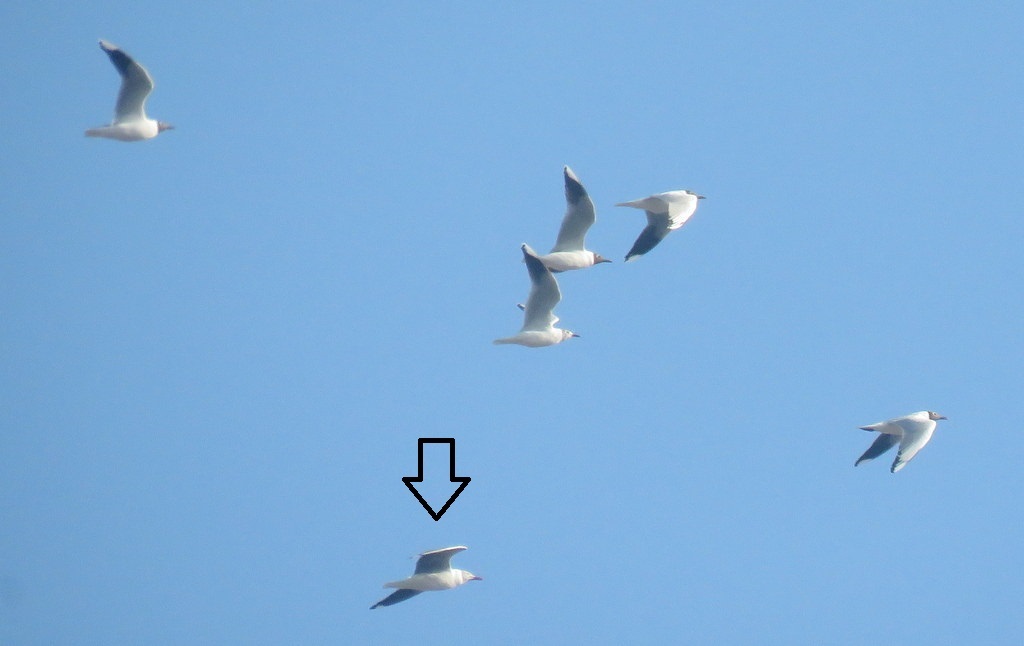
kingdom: Animalia
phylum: Chordata
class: Aves
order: Charadriiformes
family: Laridae
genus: Chroicocephalus
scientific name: Chroicocephalus cirrocephalus
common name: Grey-headed gull
